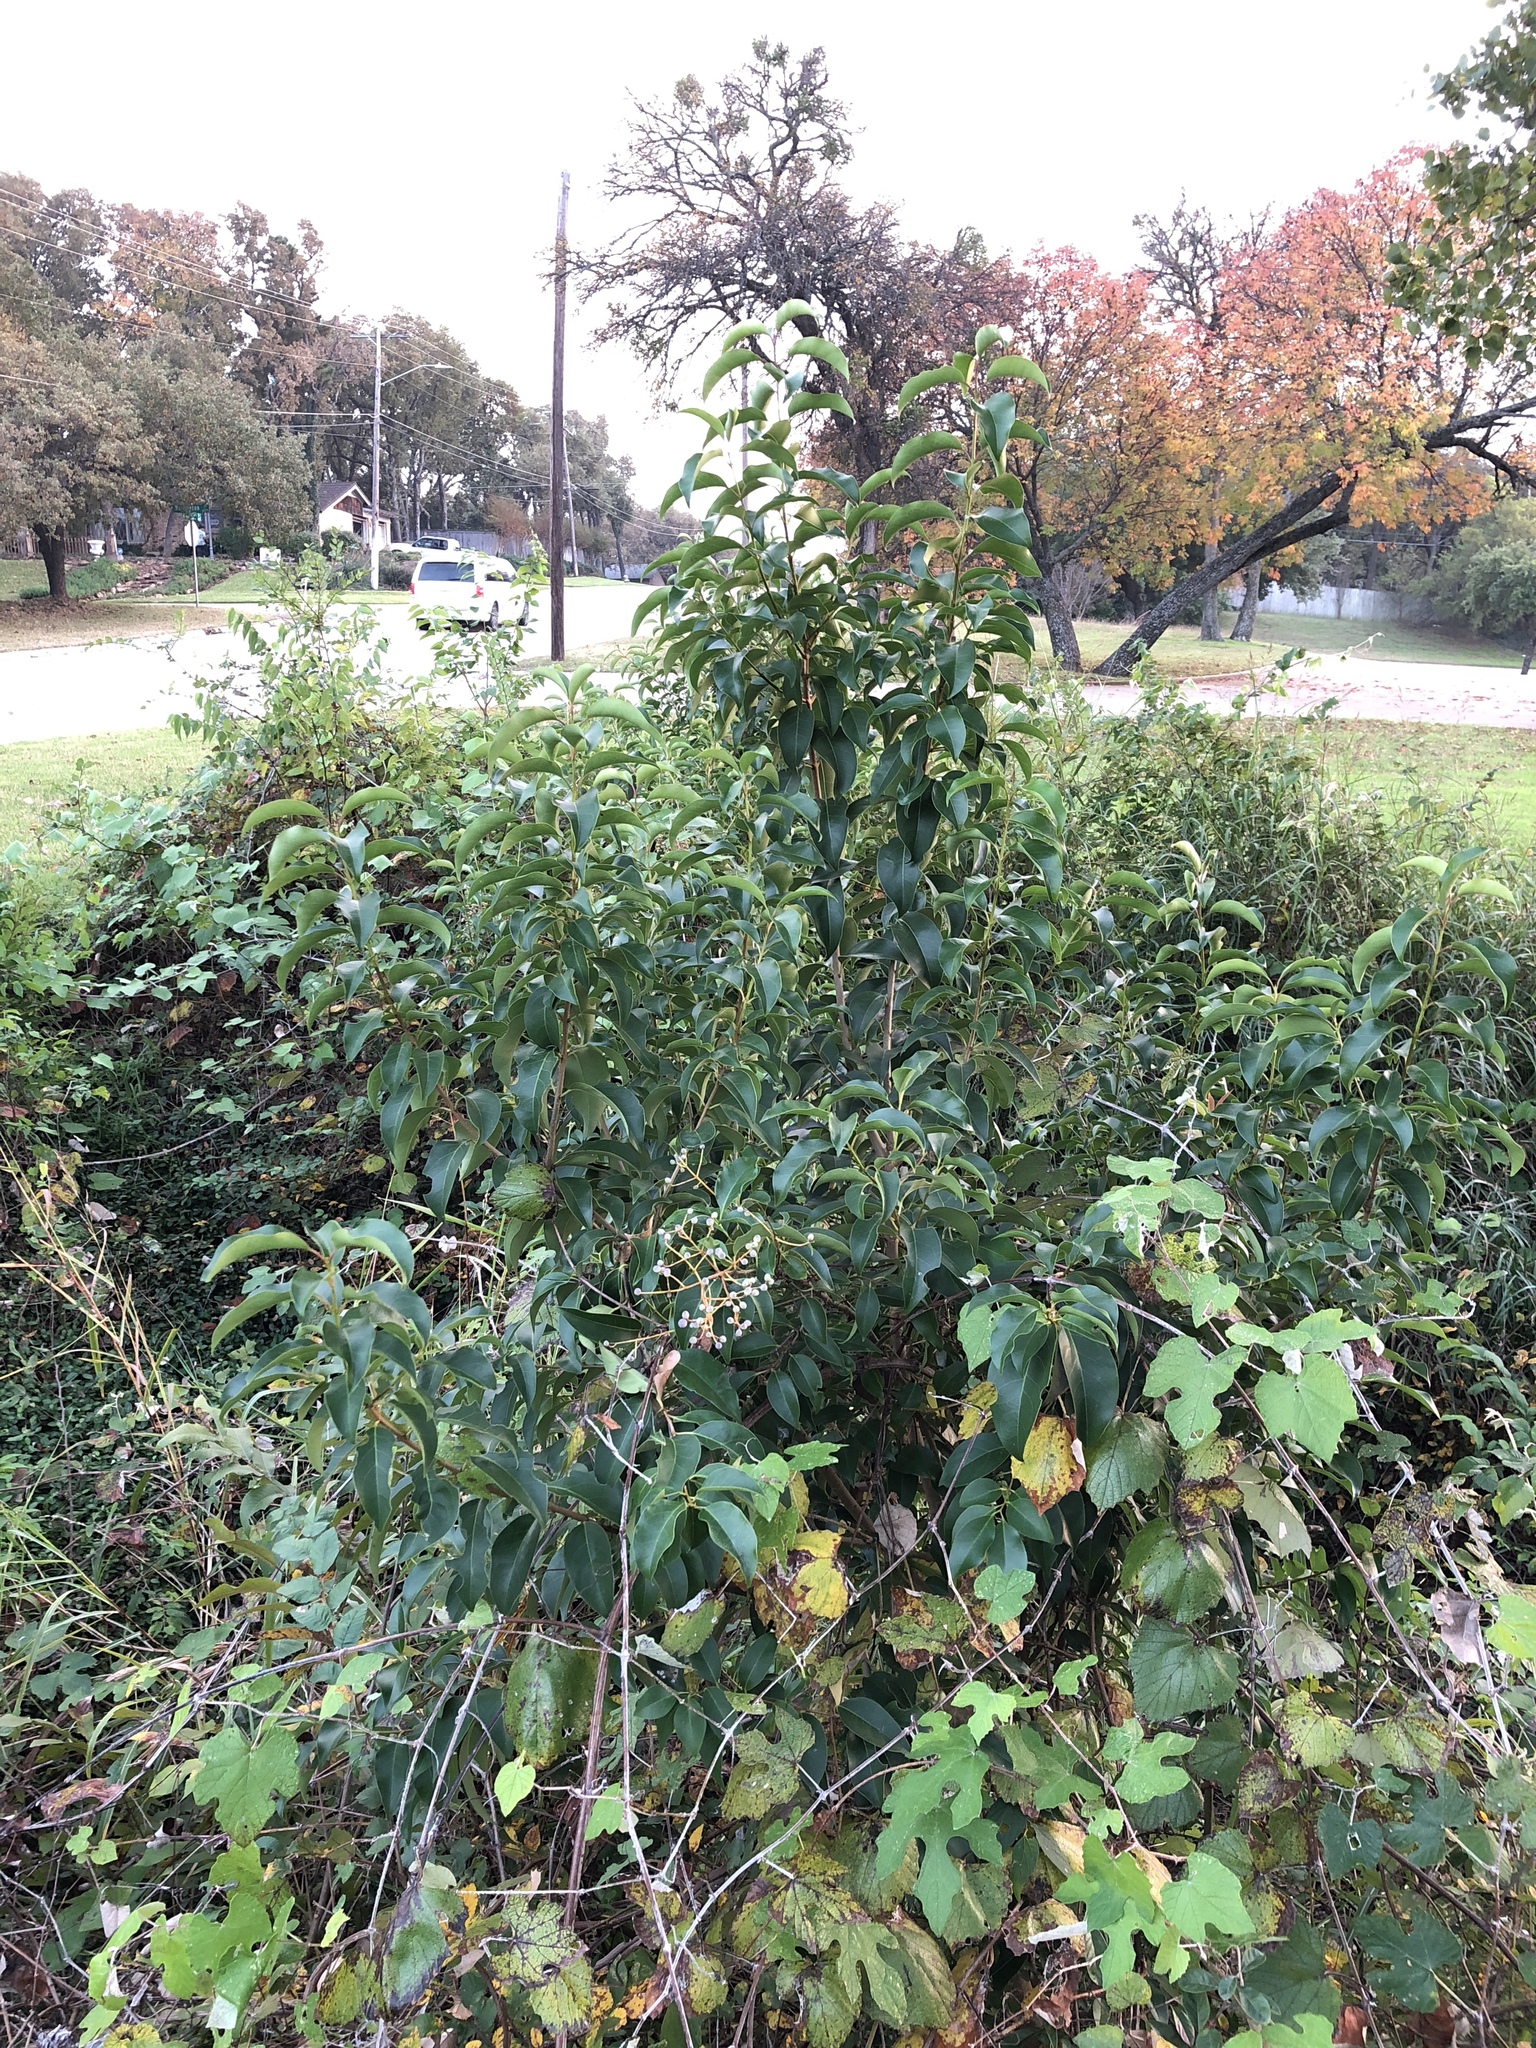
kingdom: Plantae
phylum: Tracheophyta
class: Magnoliopsida
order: Lamiales
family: Oleaceae
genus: Ligustrum
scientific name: Ligustrum lucidum
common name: Glossy privet
